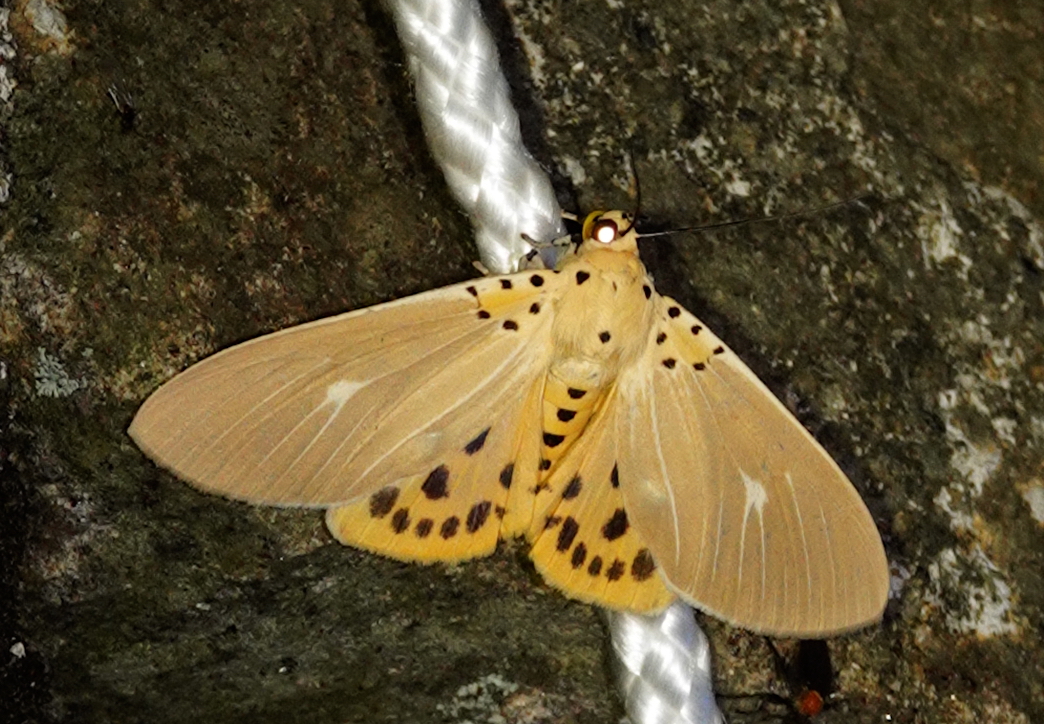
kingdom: Animalia
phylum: Arthropoda
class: Insecta
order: Lepidoptera
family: Erebidae
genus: Asota
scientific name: Asota caricae
